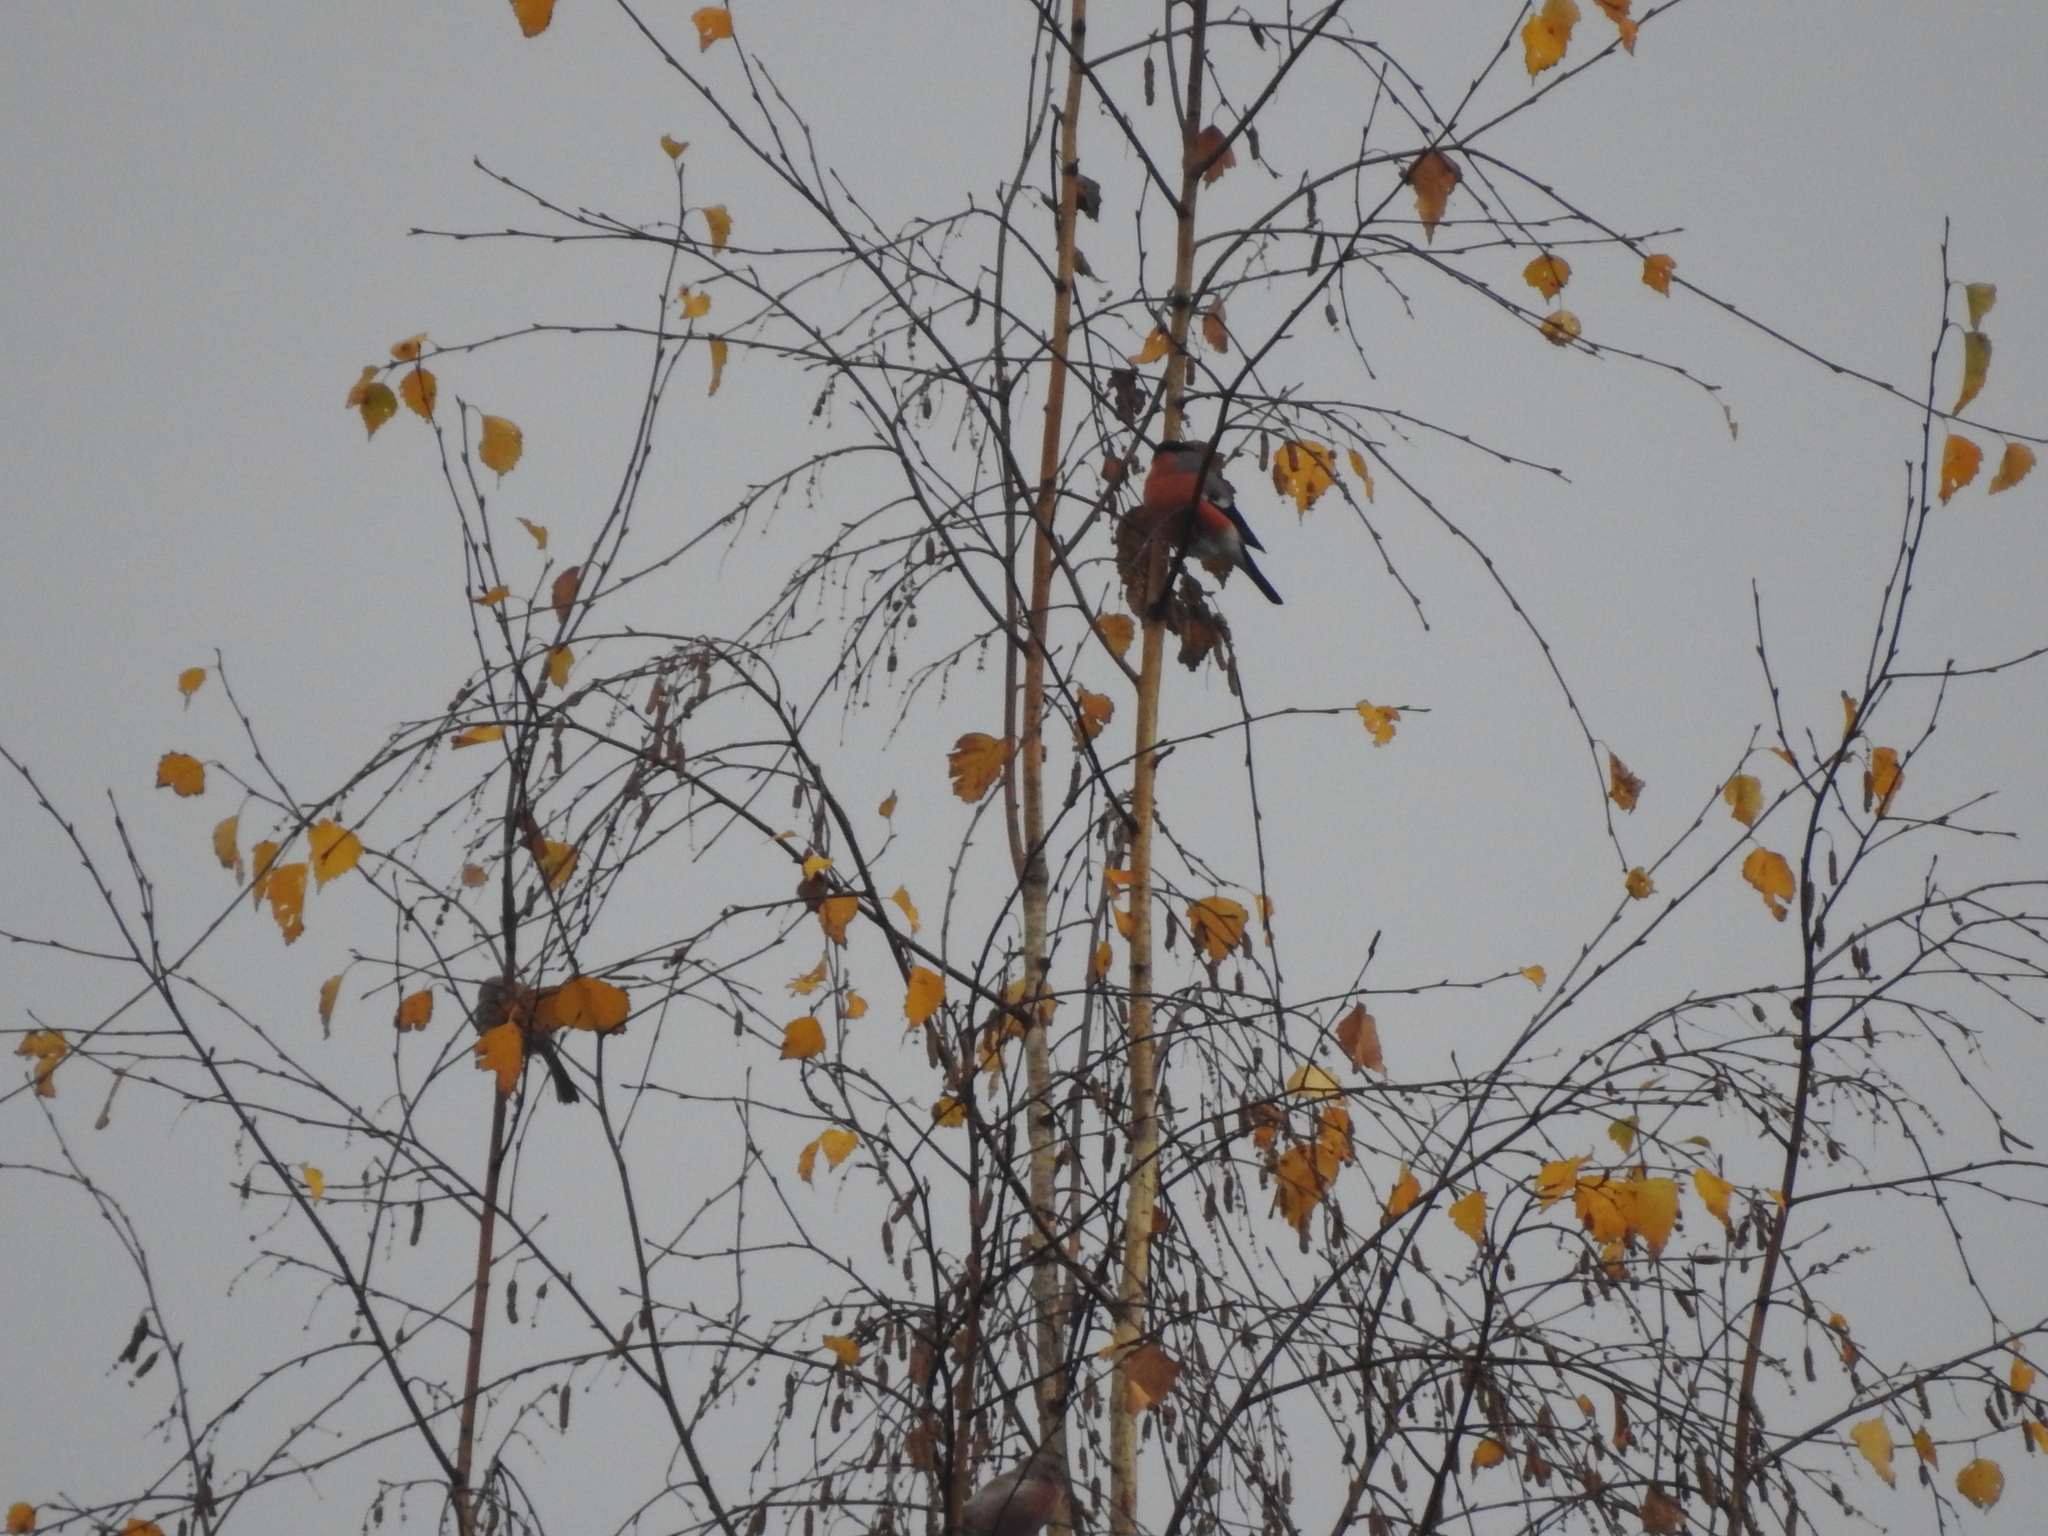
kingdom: Animalia
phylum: Chordata
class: Aves
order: Passeriformes
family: Fringillidae
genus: Pyrrhula
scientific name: Pyrrhula pyrrhula
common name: Eurasian bullfinch
